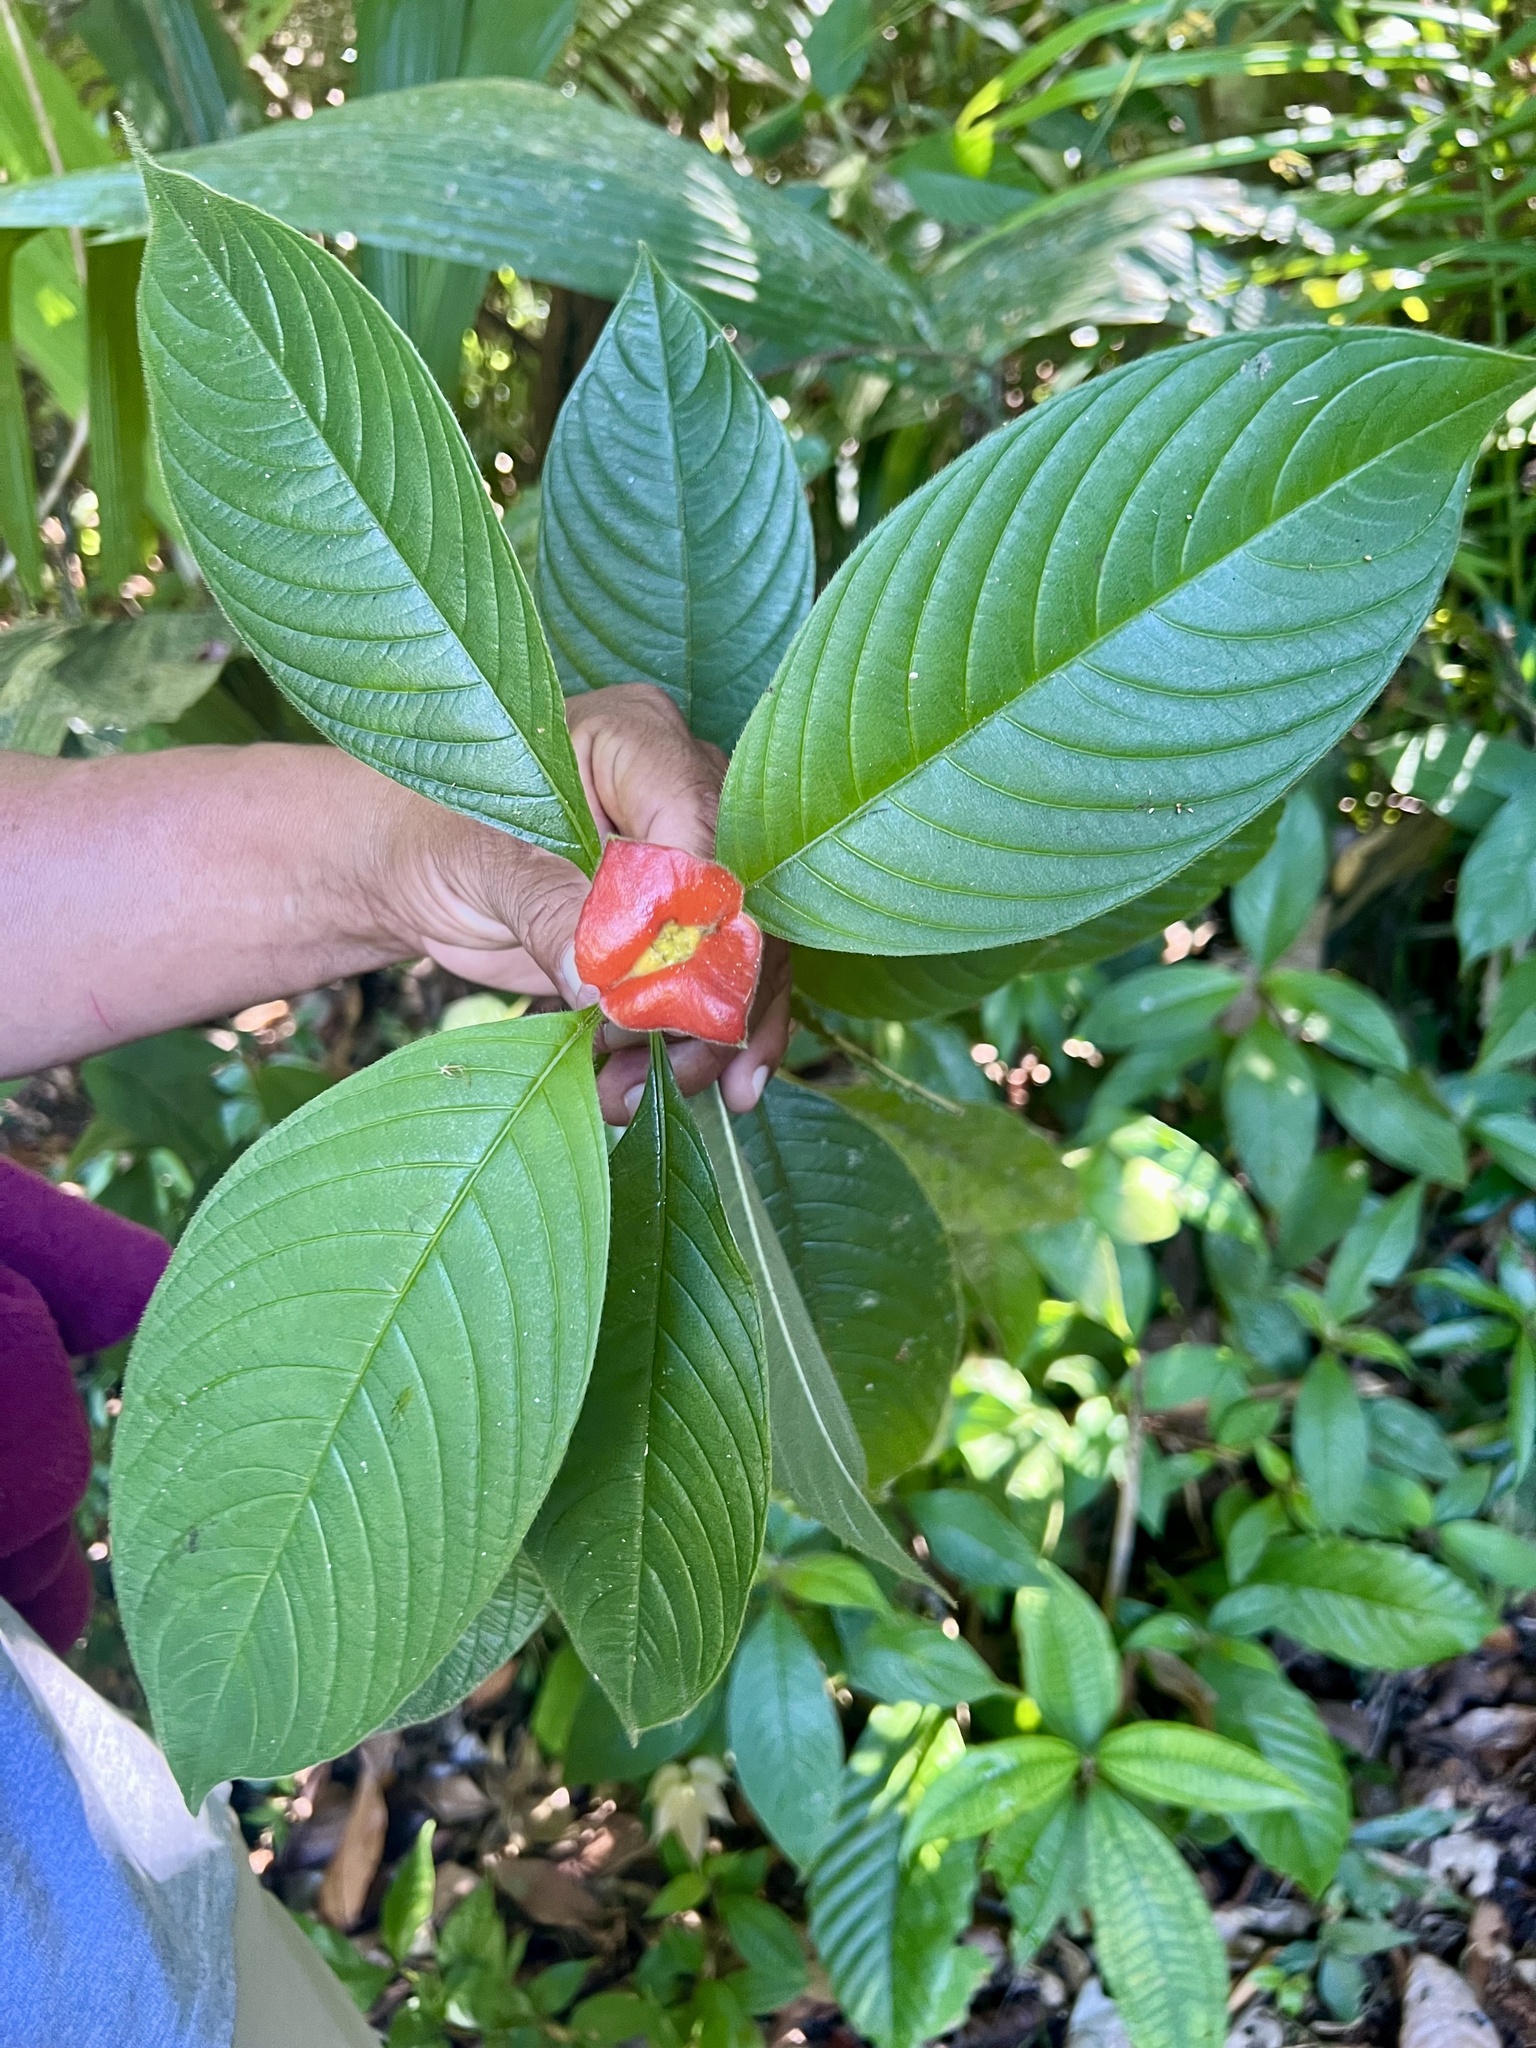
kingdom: Plantae
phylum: Tracheophyta
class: Magnoliopsida
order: Gentianales
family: Rubiaceae
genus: Palicourea
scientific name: Palicourea tomentosa
